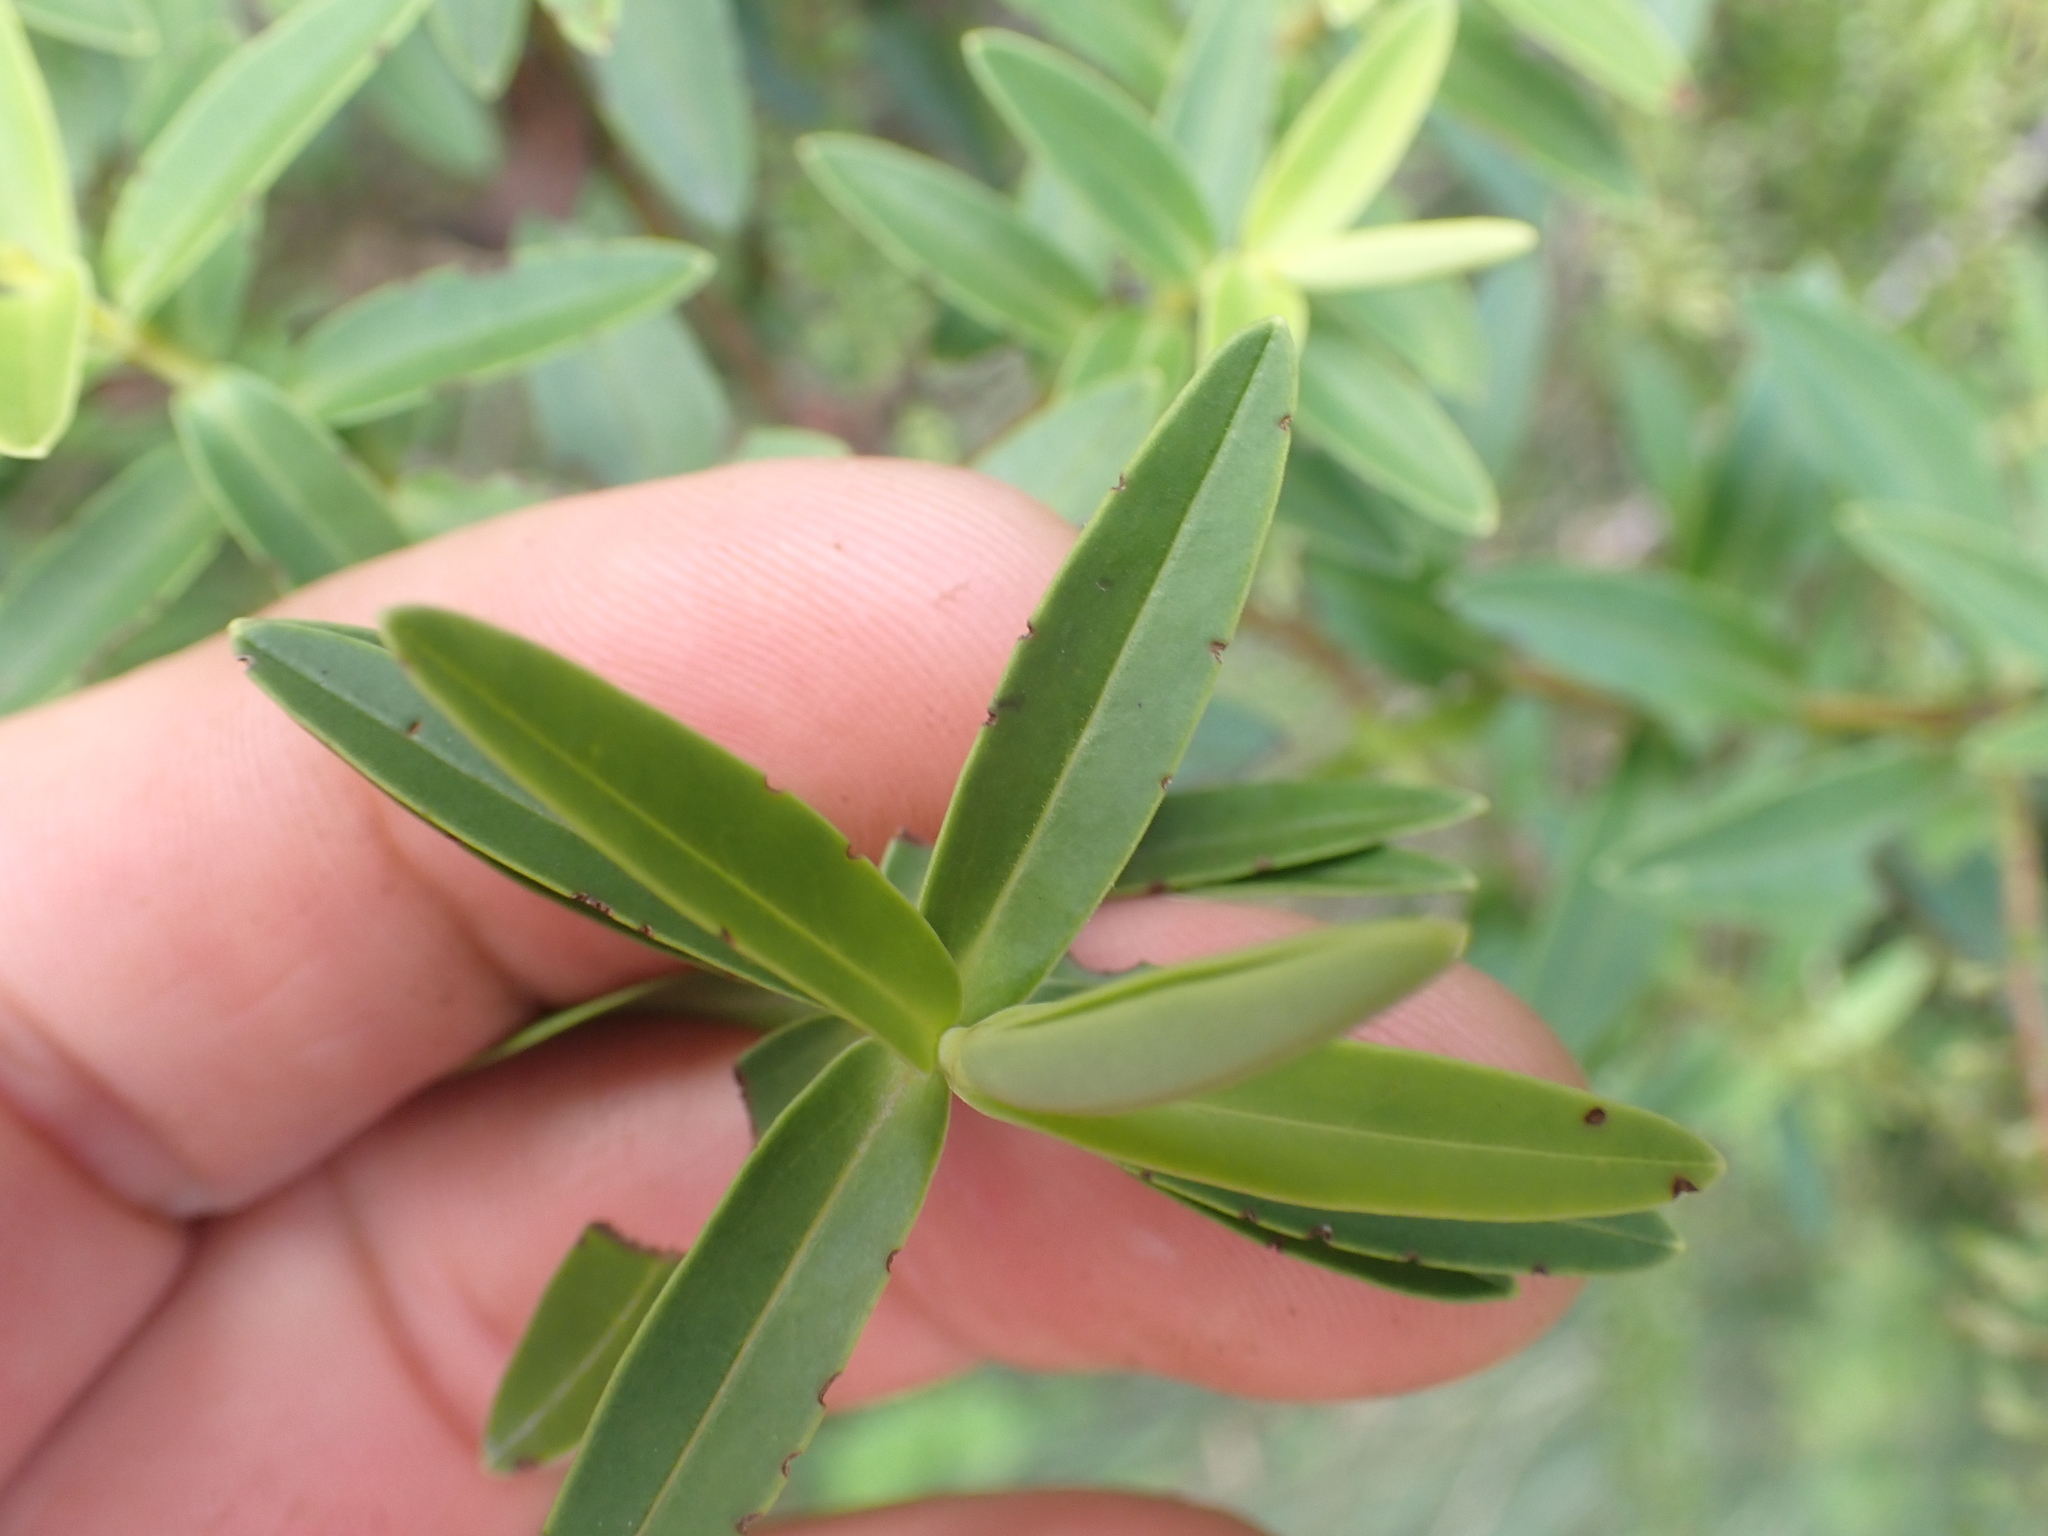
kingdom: Plantae
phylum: Tracheophyta
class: Magnoliopsida
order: Lamiales
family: Plantaginaceae
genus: Veronica
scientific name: Veronica leiophylla
